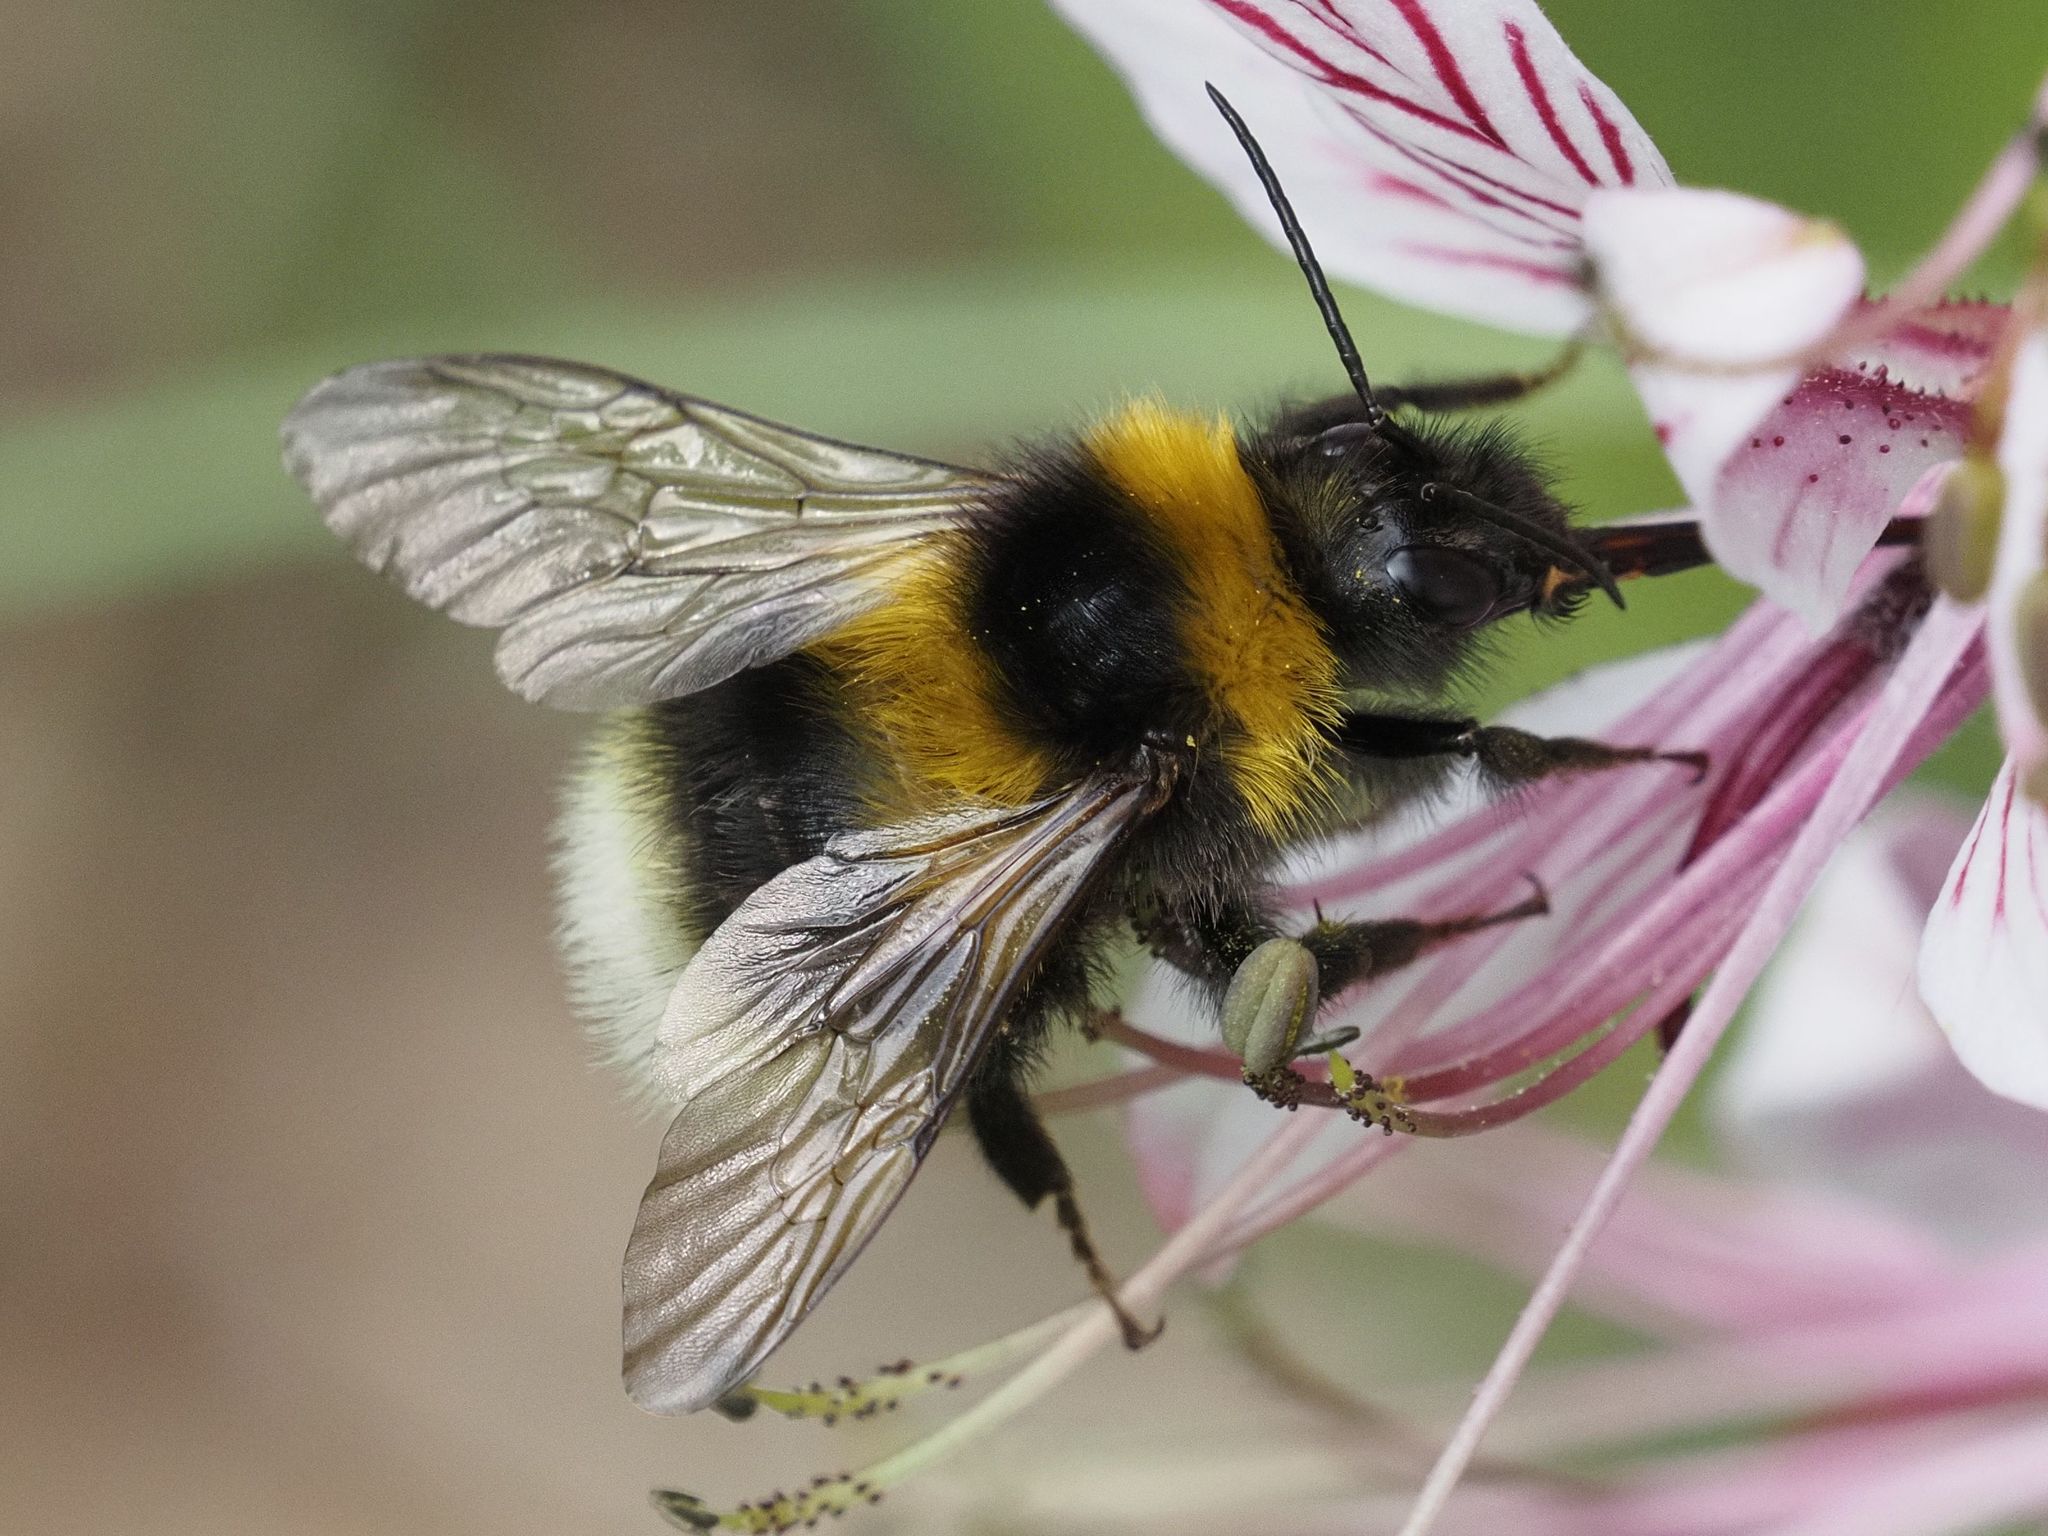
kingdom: Animalia
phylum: Arthropoda
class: Insecta
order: Hymenoptera
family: Apidae
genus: Bombus
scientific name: Bombus hortorum
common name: Garden bumblebee
